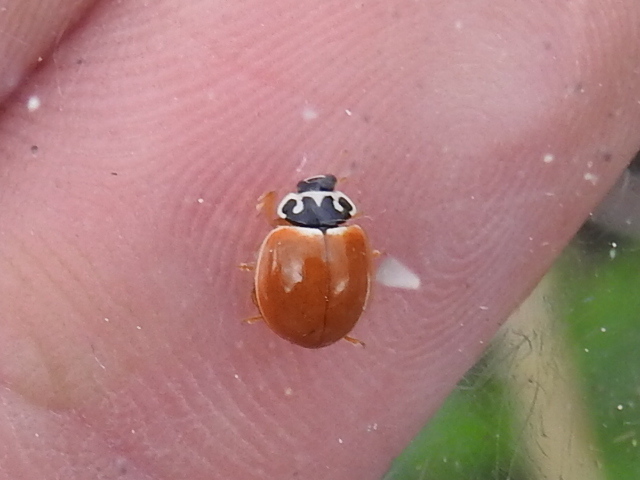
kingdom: Animalia
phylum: Arthropoda
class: Insecta
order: Coleoptera
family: Coccinellidae
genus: Cycloneda
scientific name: Cycloneda munda
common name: Polished lady beetle
